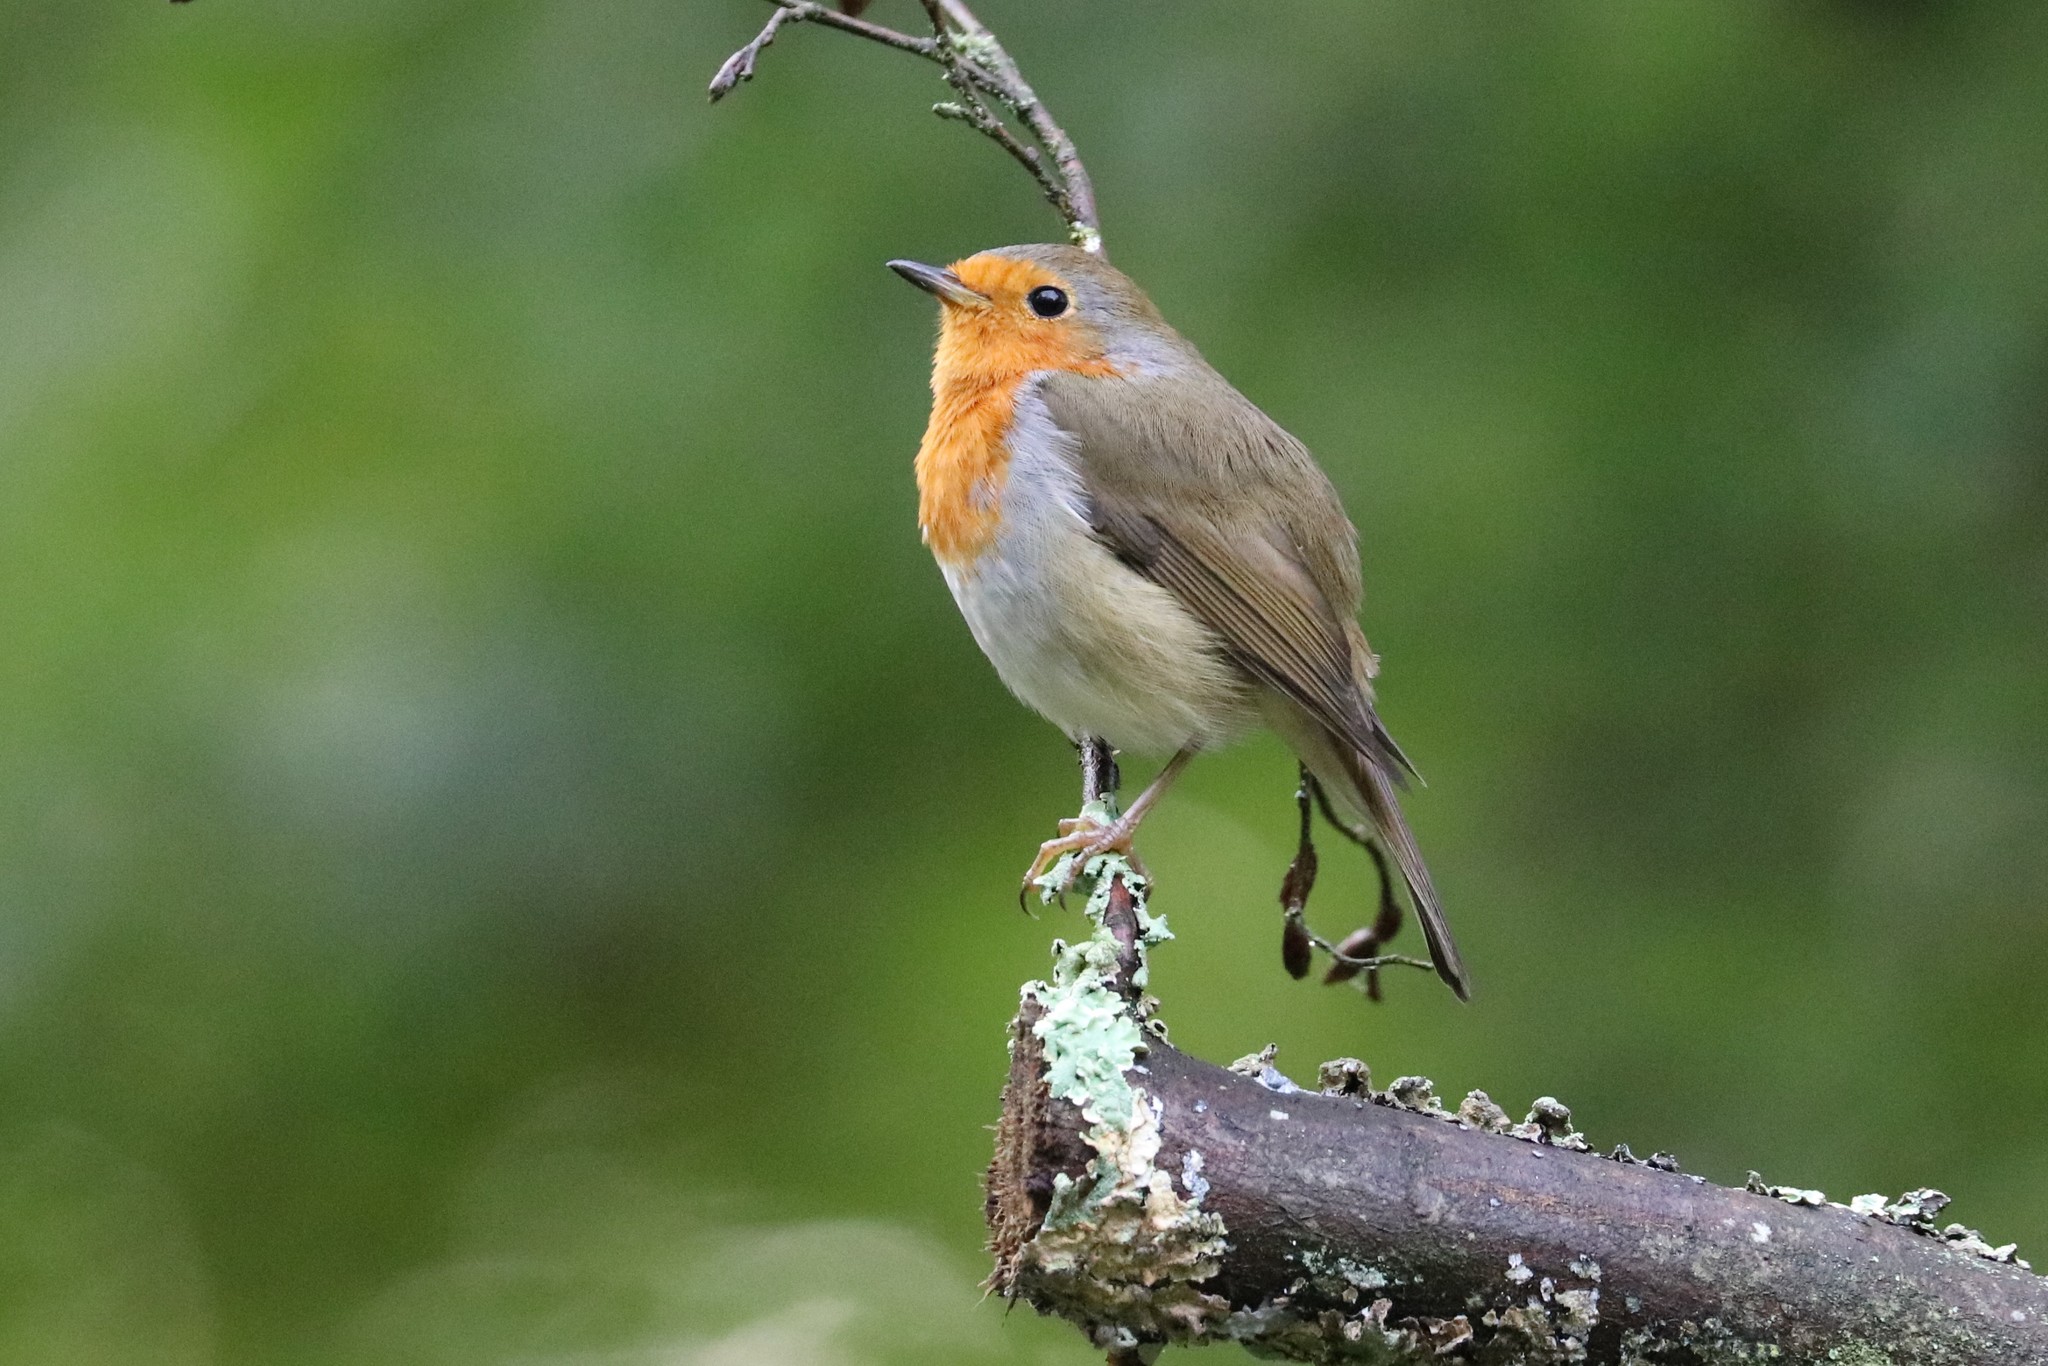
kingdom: Animalia
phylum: Chordata
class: Aves
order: Passeriformes
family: Muscicapidae
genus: Erithacus
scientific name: Erithacus rubecula
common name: European robin
